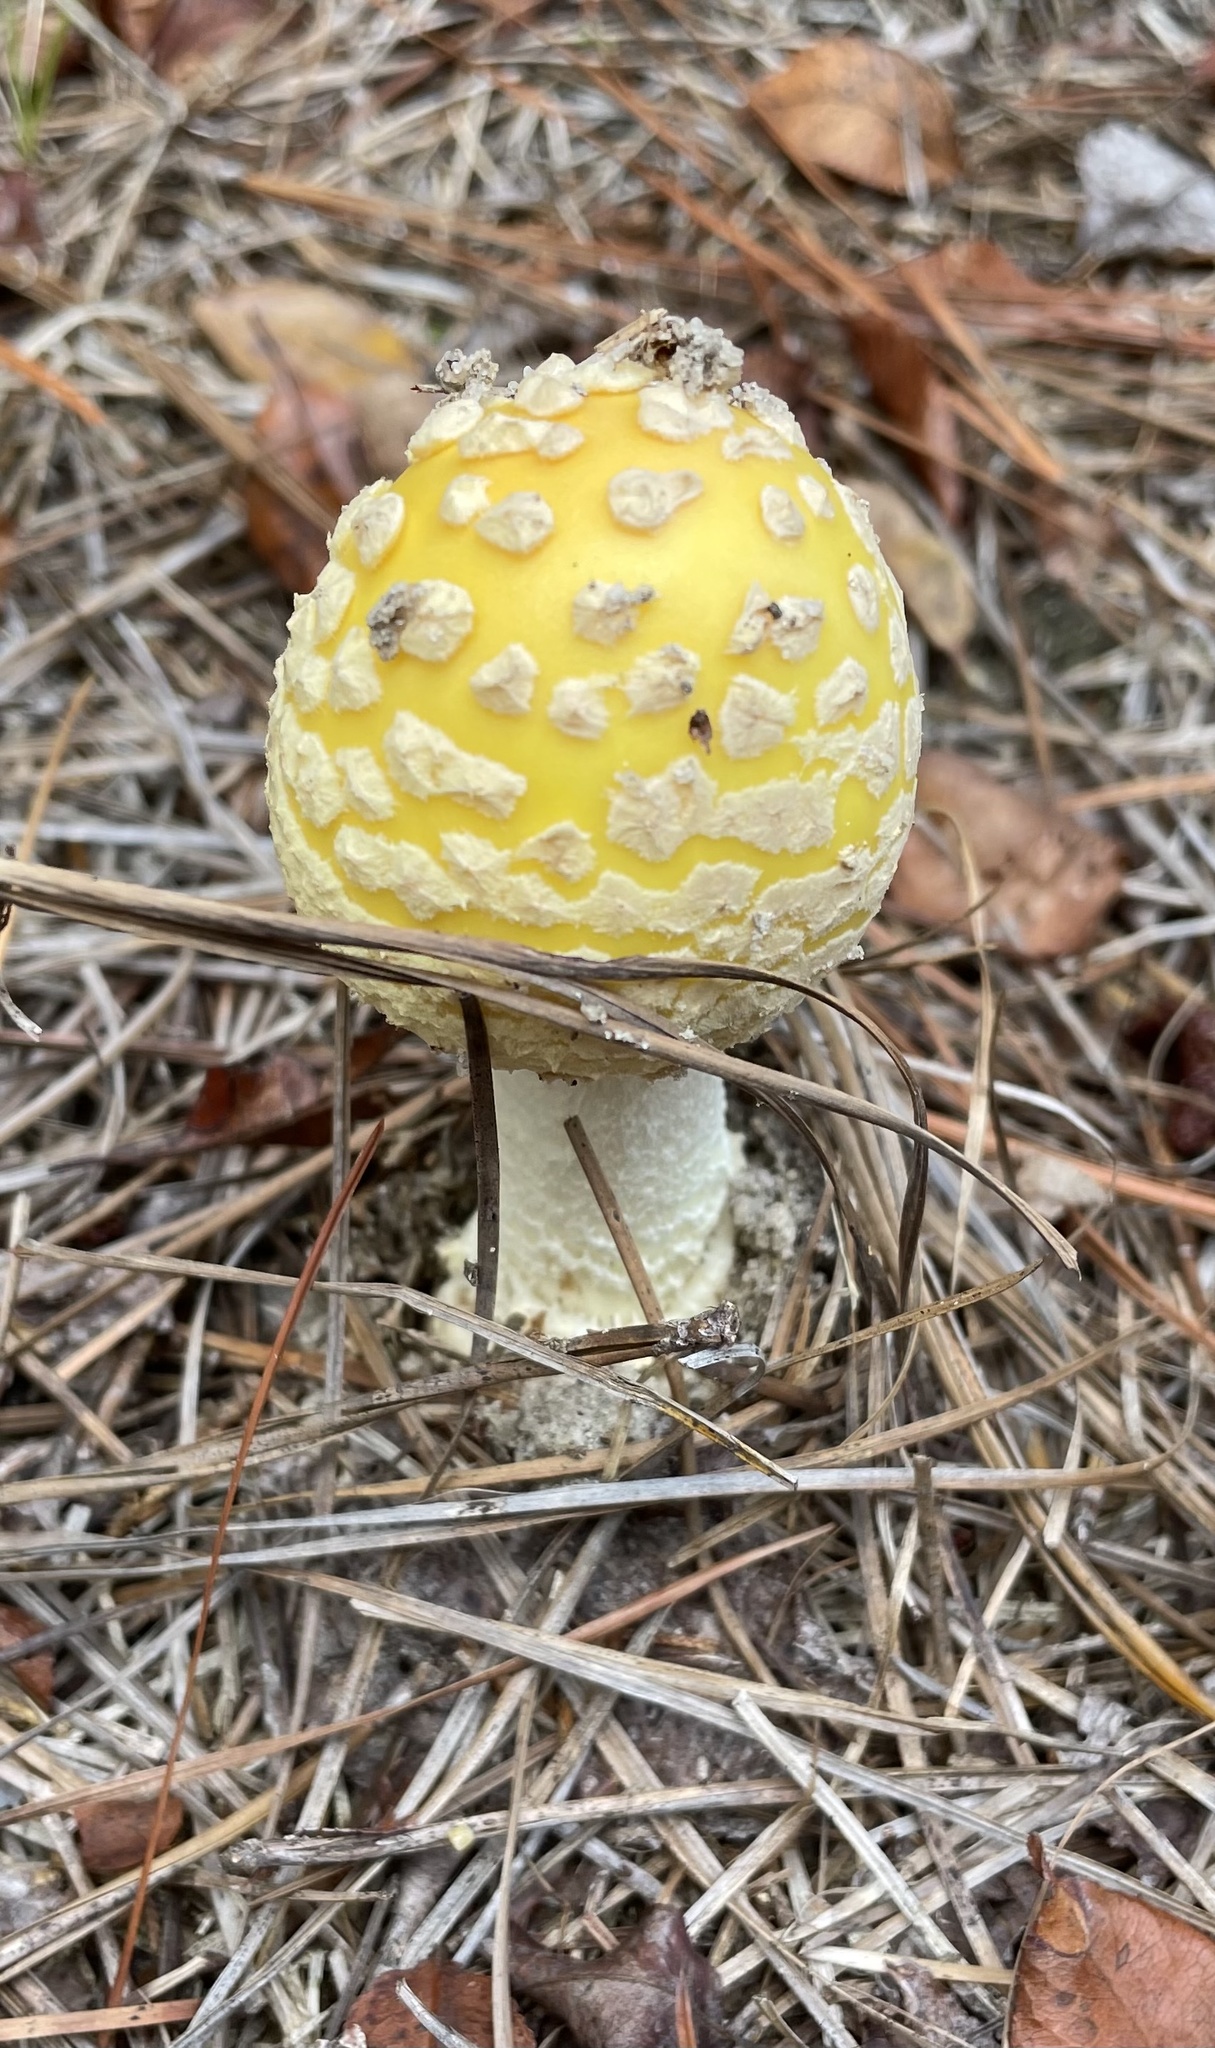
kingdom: Fungi
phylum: Basidiomycota
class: Agaricomycetes
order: Agaricales
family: Amanitaceae
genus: Amanita
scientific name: Amanita muscaria
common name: Fly agaric
